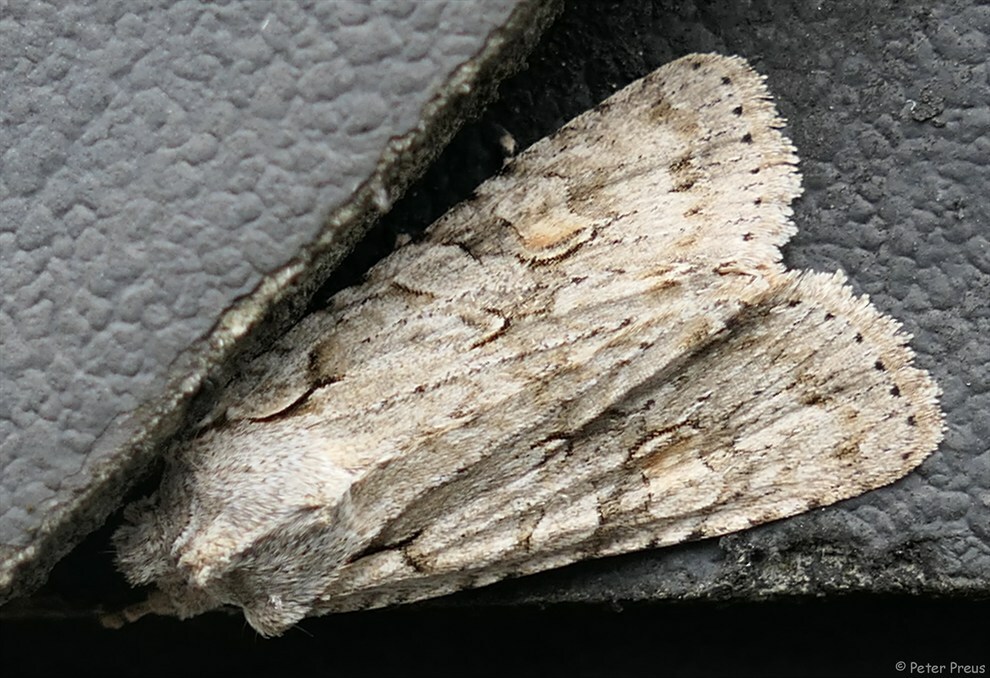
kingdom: Animalia
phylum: Arthropoda
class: Insecta
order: Lepidoptera
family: Noctuidae
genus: Lithophane
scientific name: Lithophane ornitopus
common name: Grey shoulder-knot
